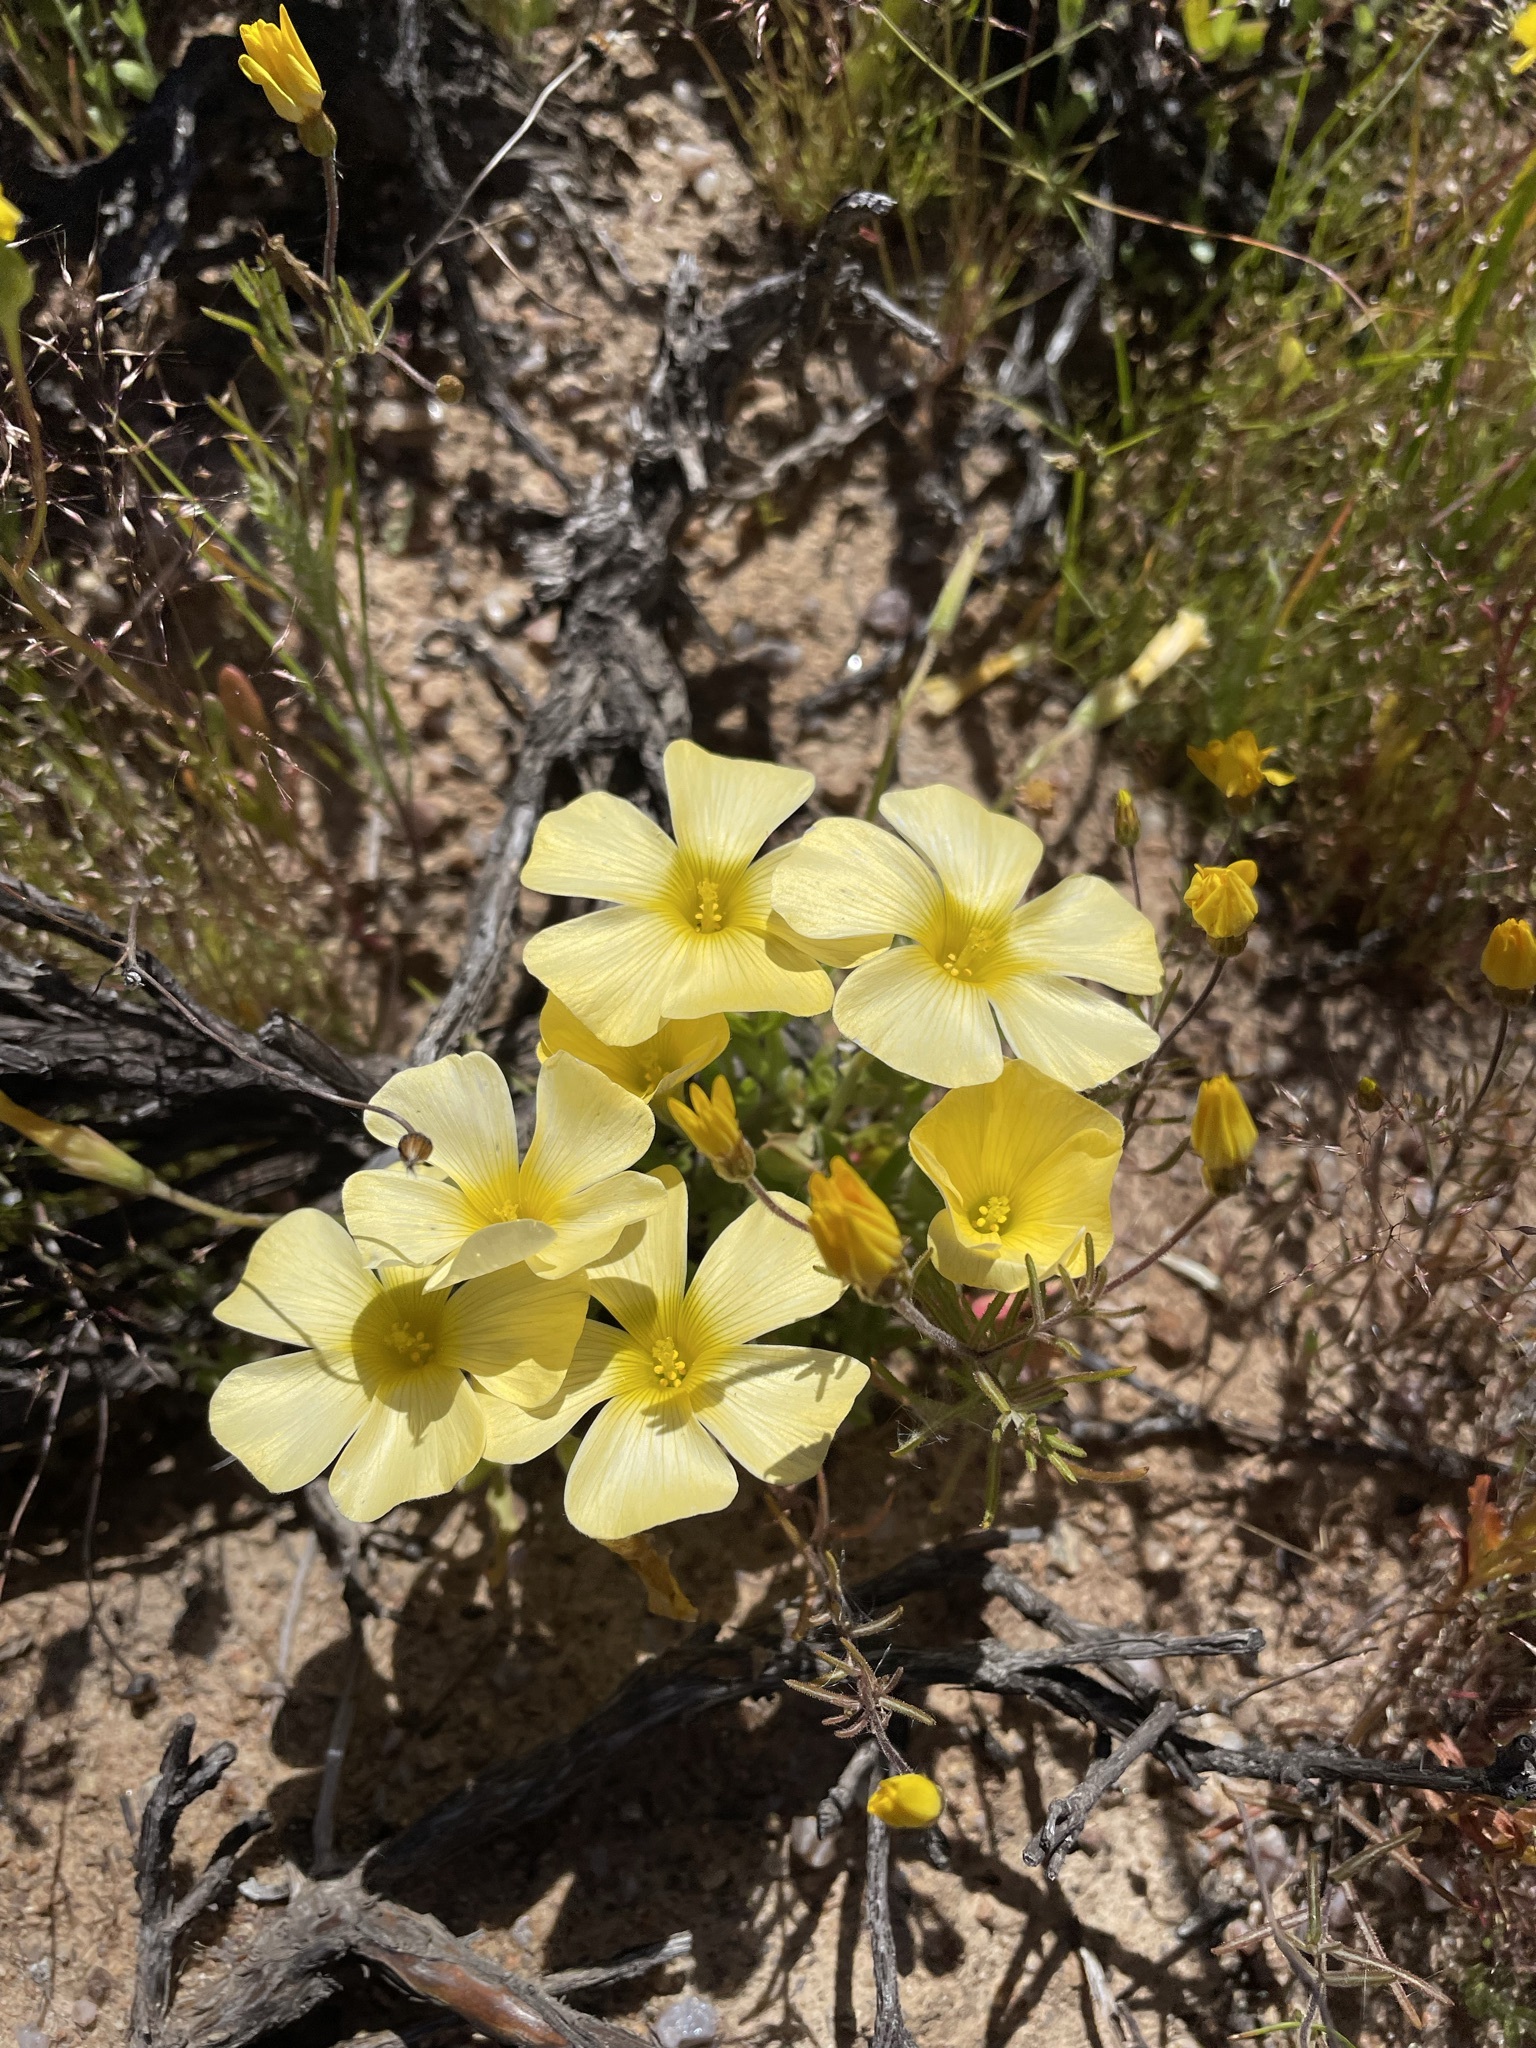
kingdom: Plantae
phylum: Tracheophyta
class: Magnoliopsida
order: Oxalidales
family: Oxalidaceae
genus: Oxalis
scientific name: Oxalis obtusa
